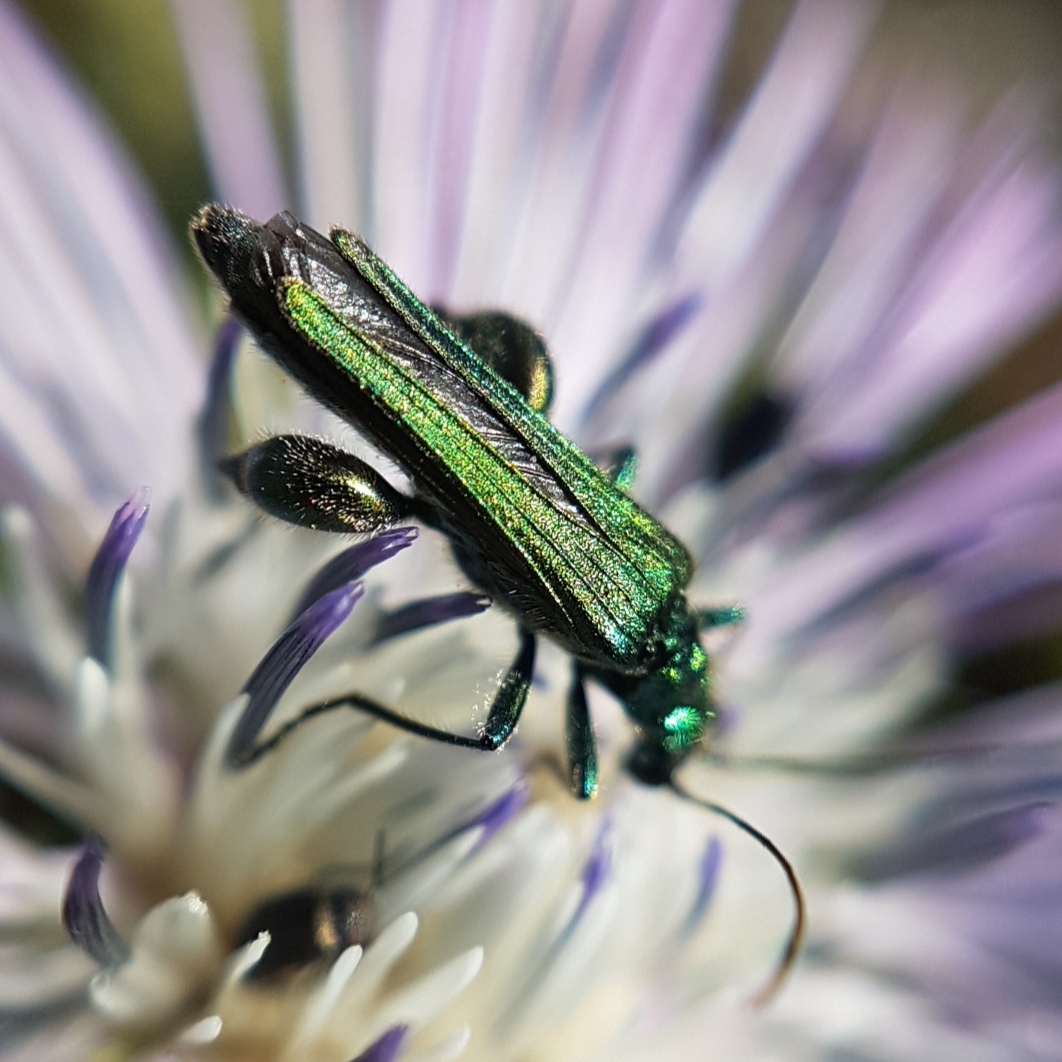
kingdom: Animalia
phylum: Arthropoda
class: Insecta
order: Coleoptera
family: Oedemeridae
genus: Oedemera
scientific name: Oedemera nobilis
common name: Swollen-thighed beetle
